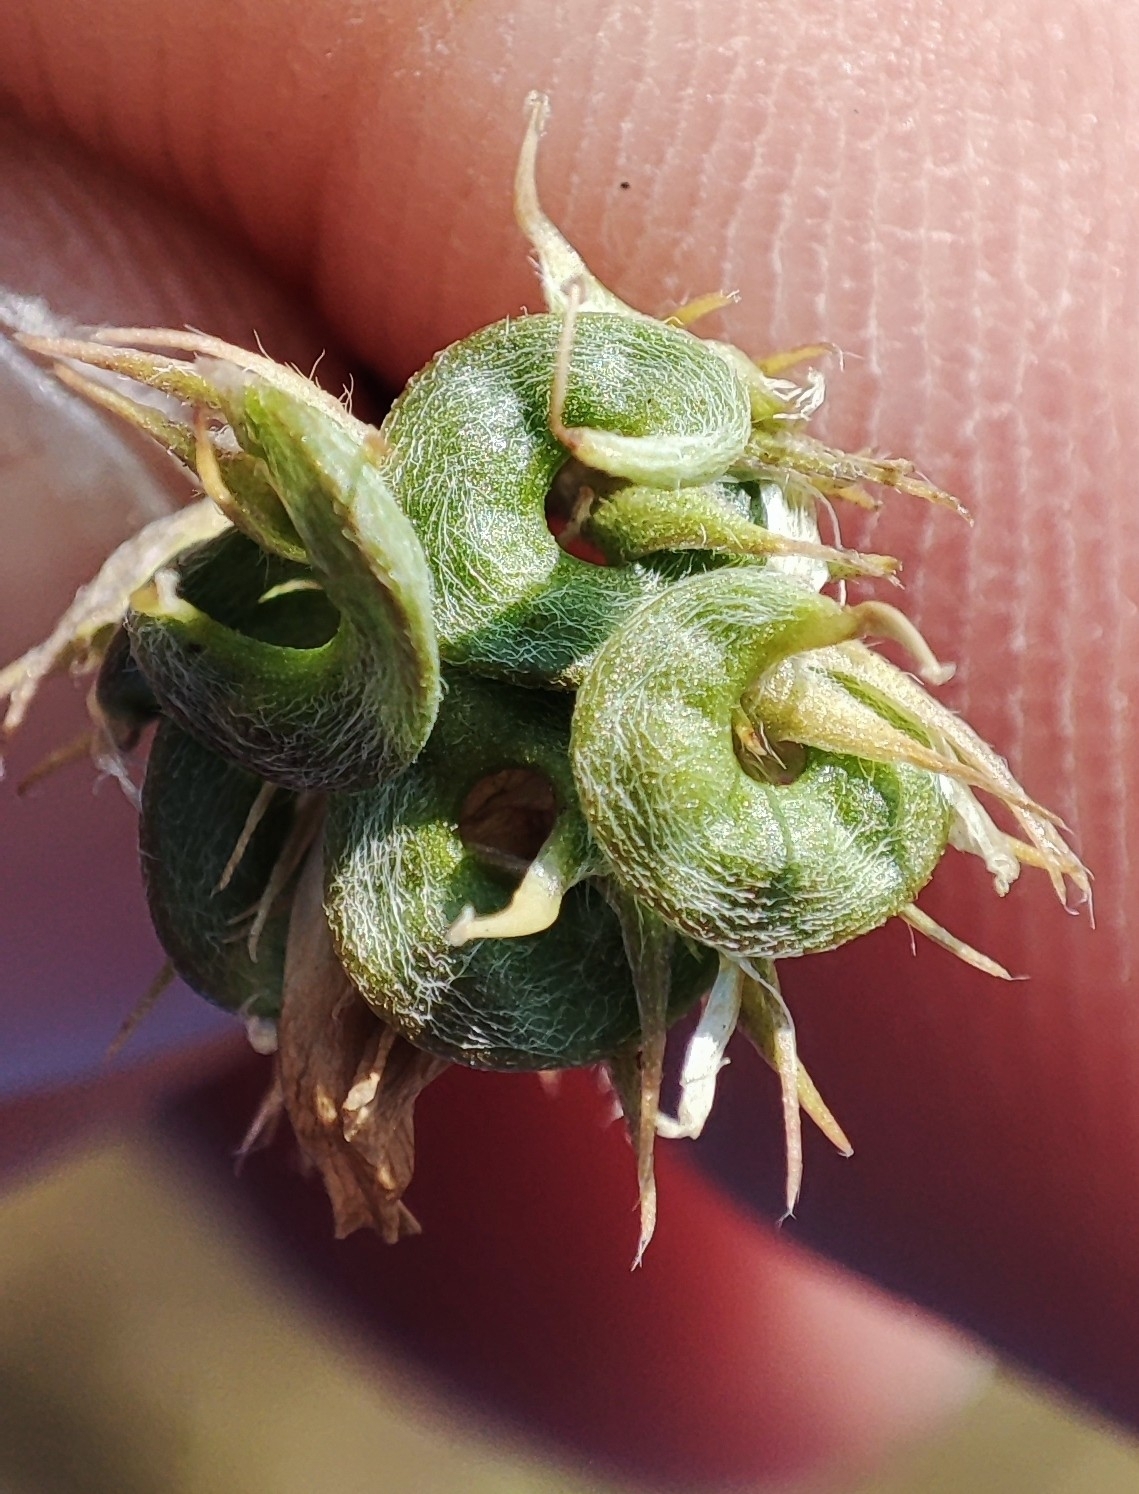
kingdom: Plantae
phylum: Tracheophyta
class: Magnoliopsida
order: Fabales
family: Fabaceae
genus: Medicago
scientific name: Medicago varia
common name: Sand lucerne
